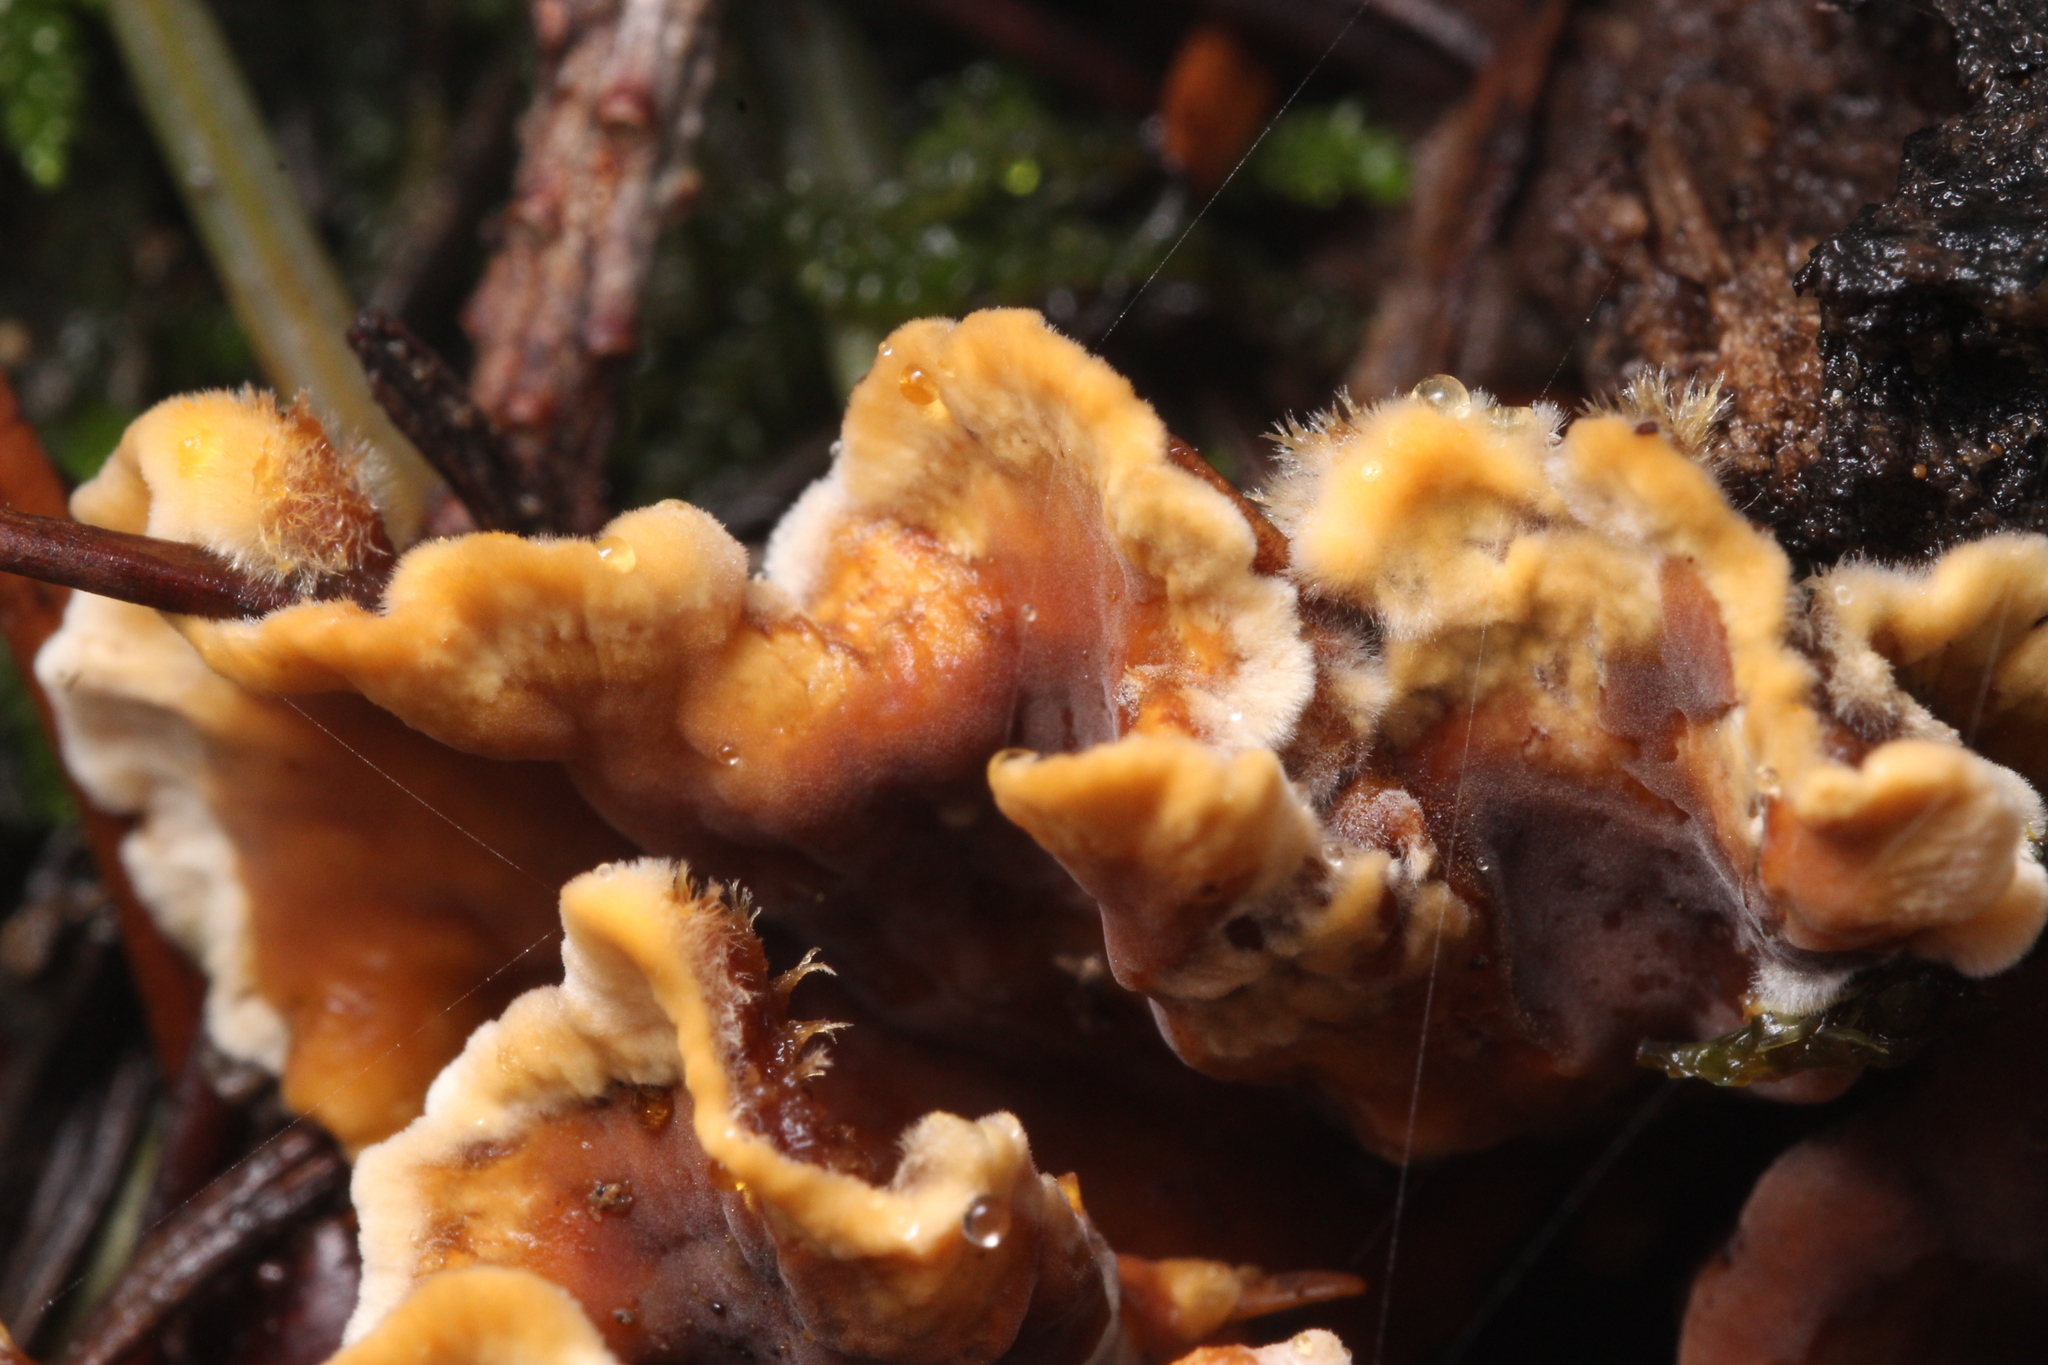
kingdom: Fungi
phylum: Basidiomycota
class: Agaricomycetes
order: Russulales
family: Stereaceae
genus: Stereum
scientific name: Stereum hirsutum
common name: Hairy curtain crust
